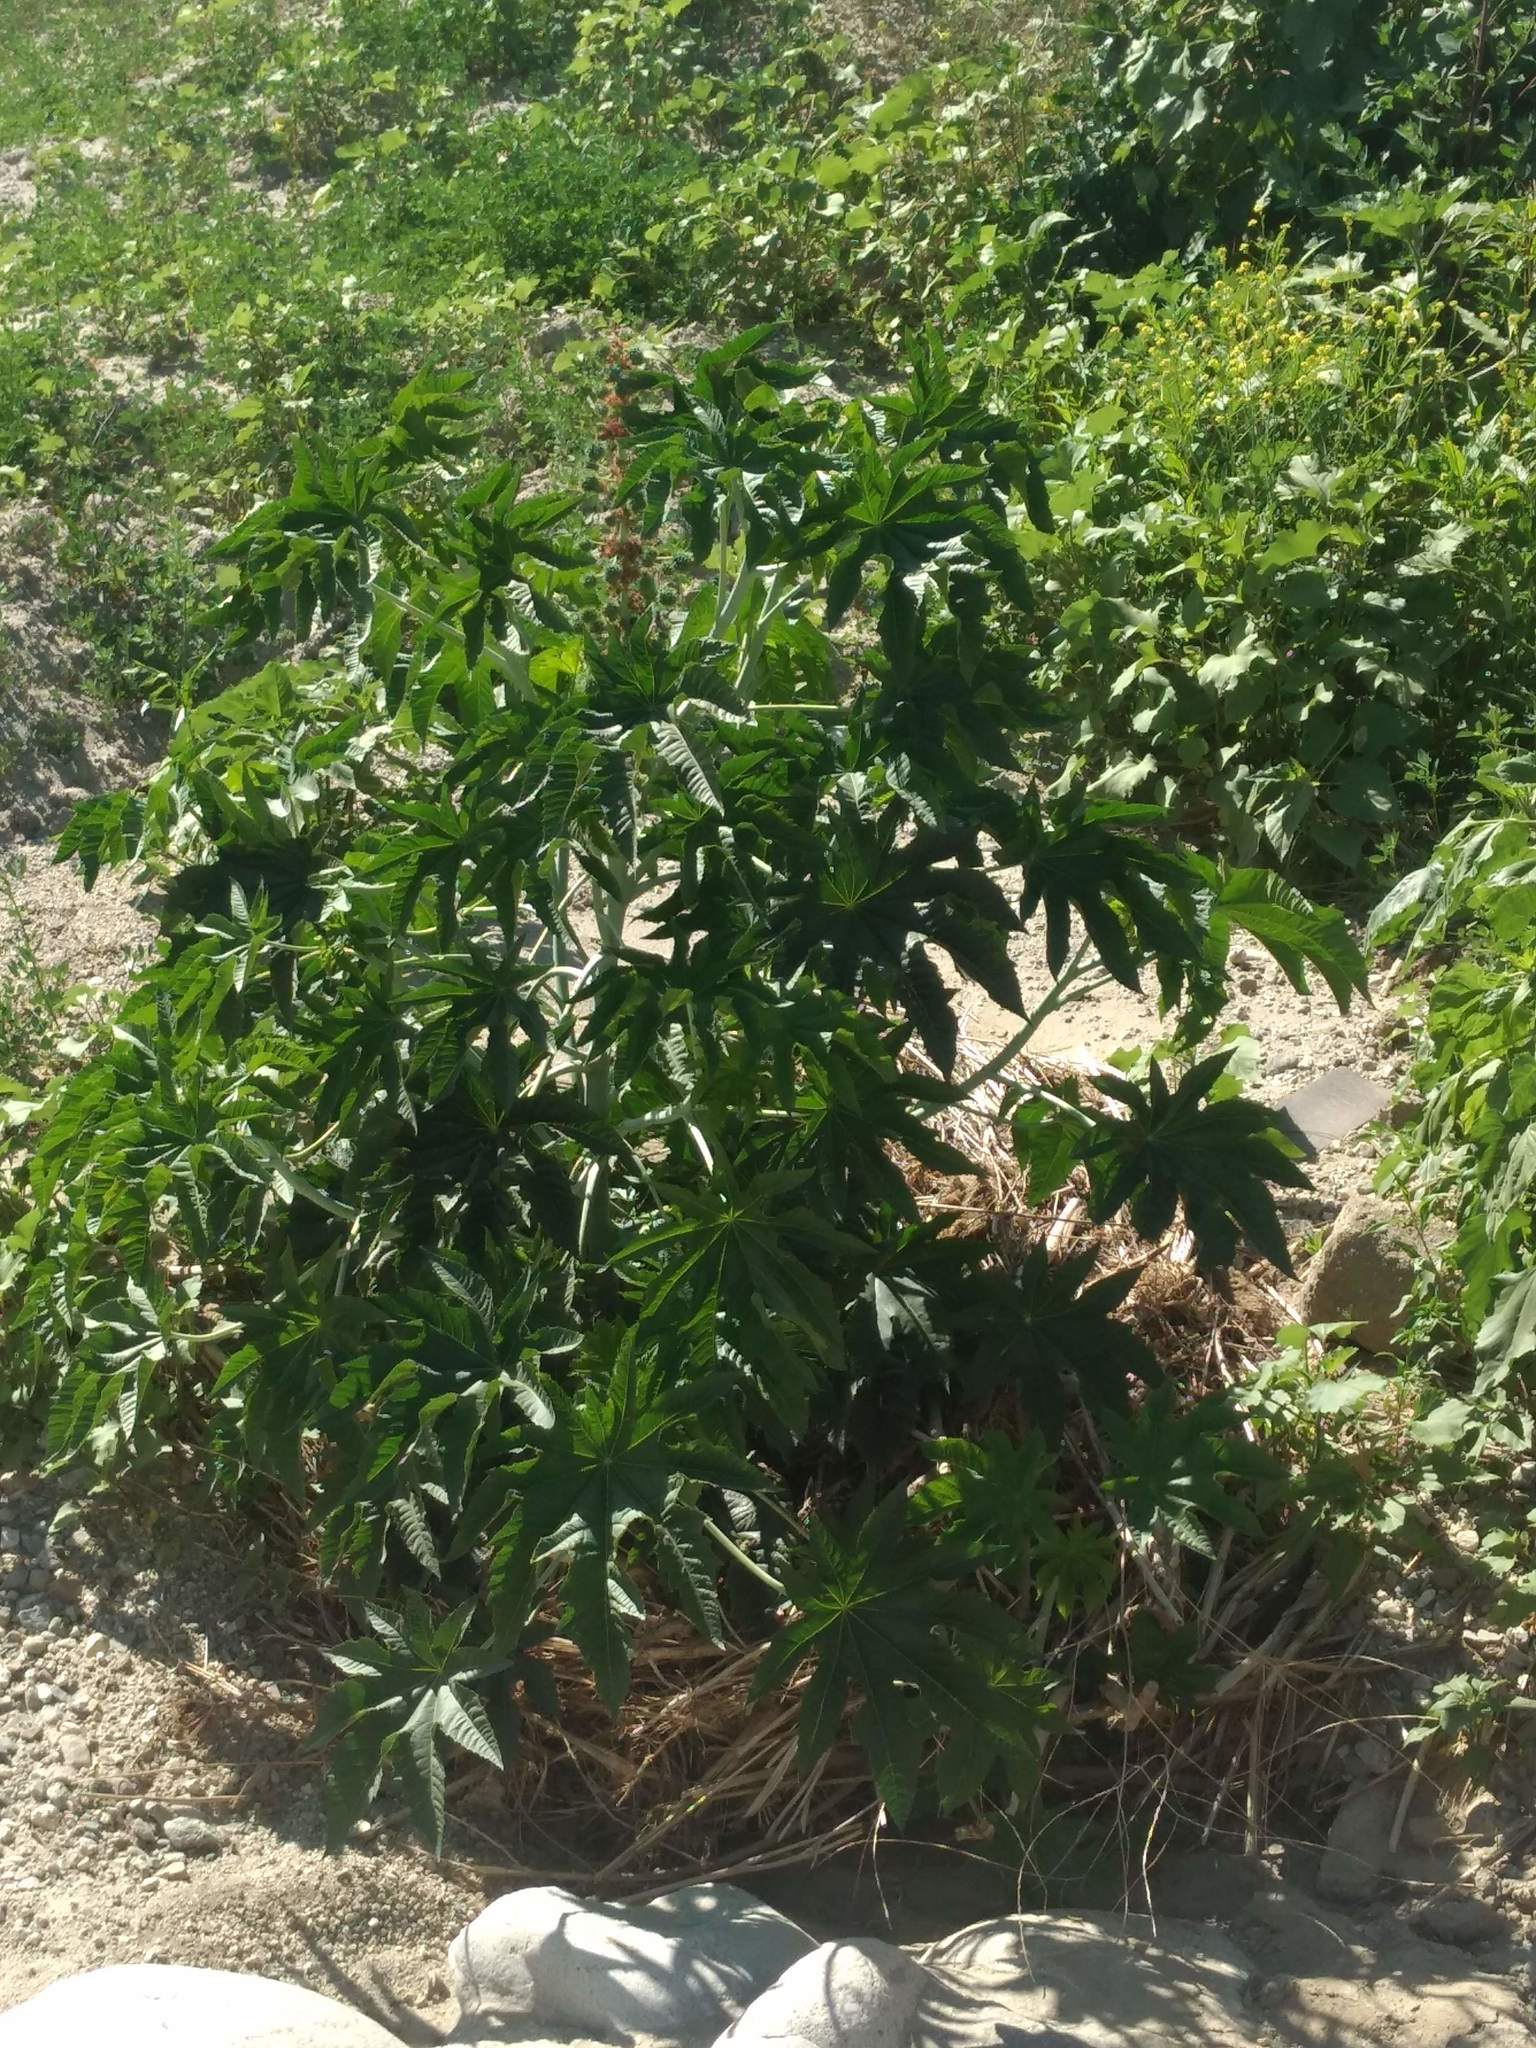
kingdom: Plantae
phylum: Tracheophyta
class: Magnoliopsida
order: Malpighiales
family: Euphorbiaceae
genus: Ricinus
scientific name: Ricinus communis
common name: Castor-oil-plant
